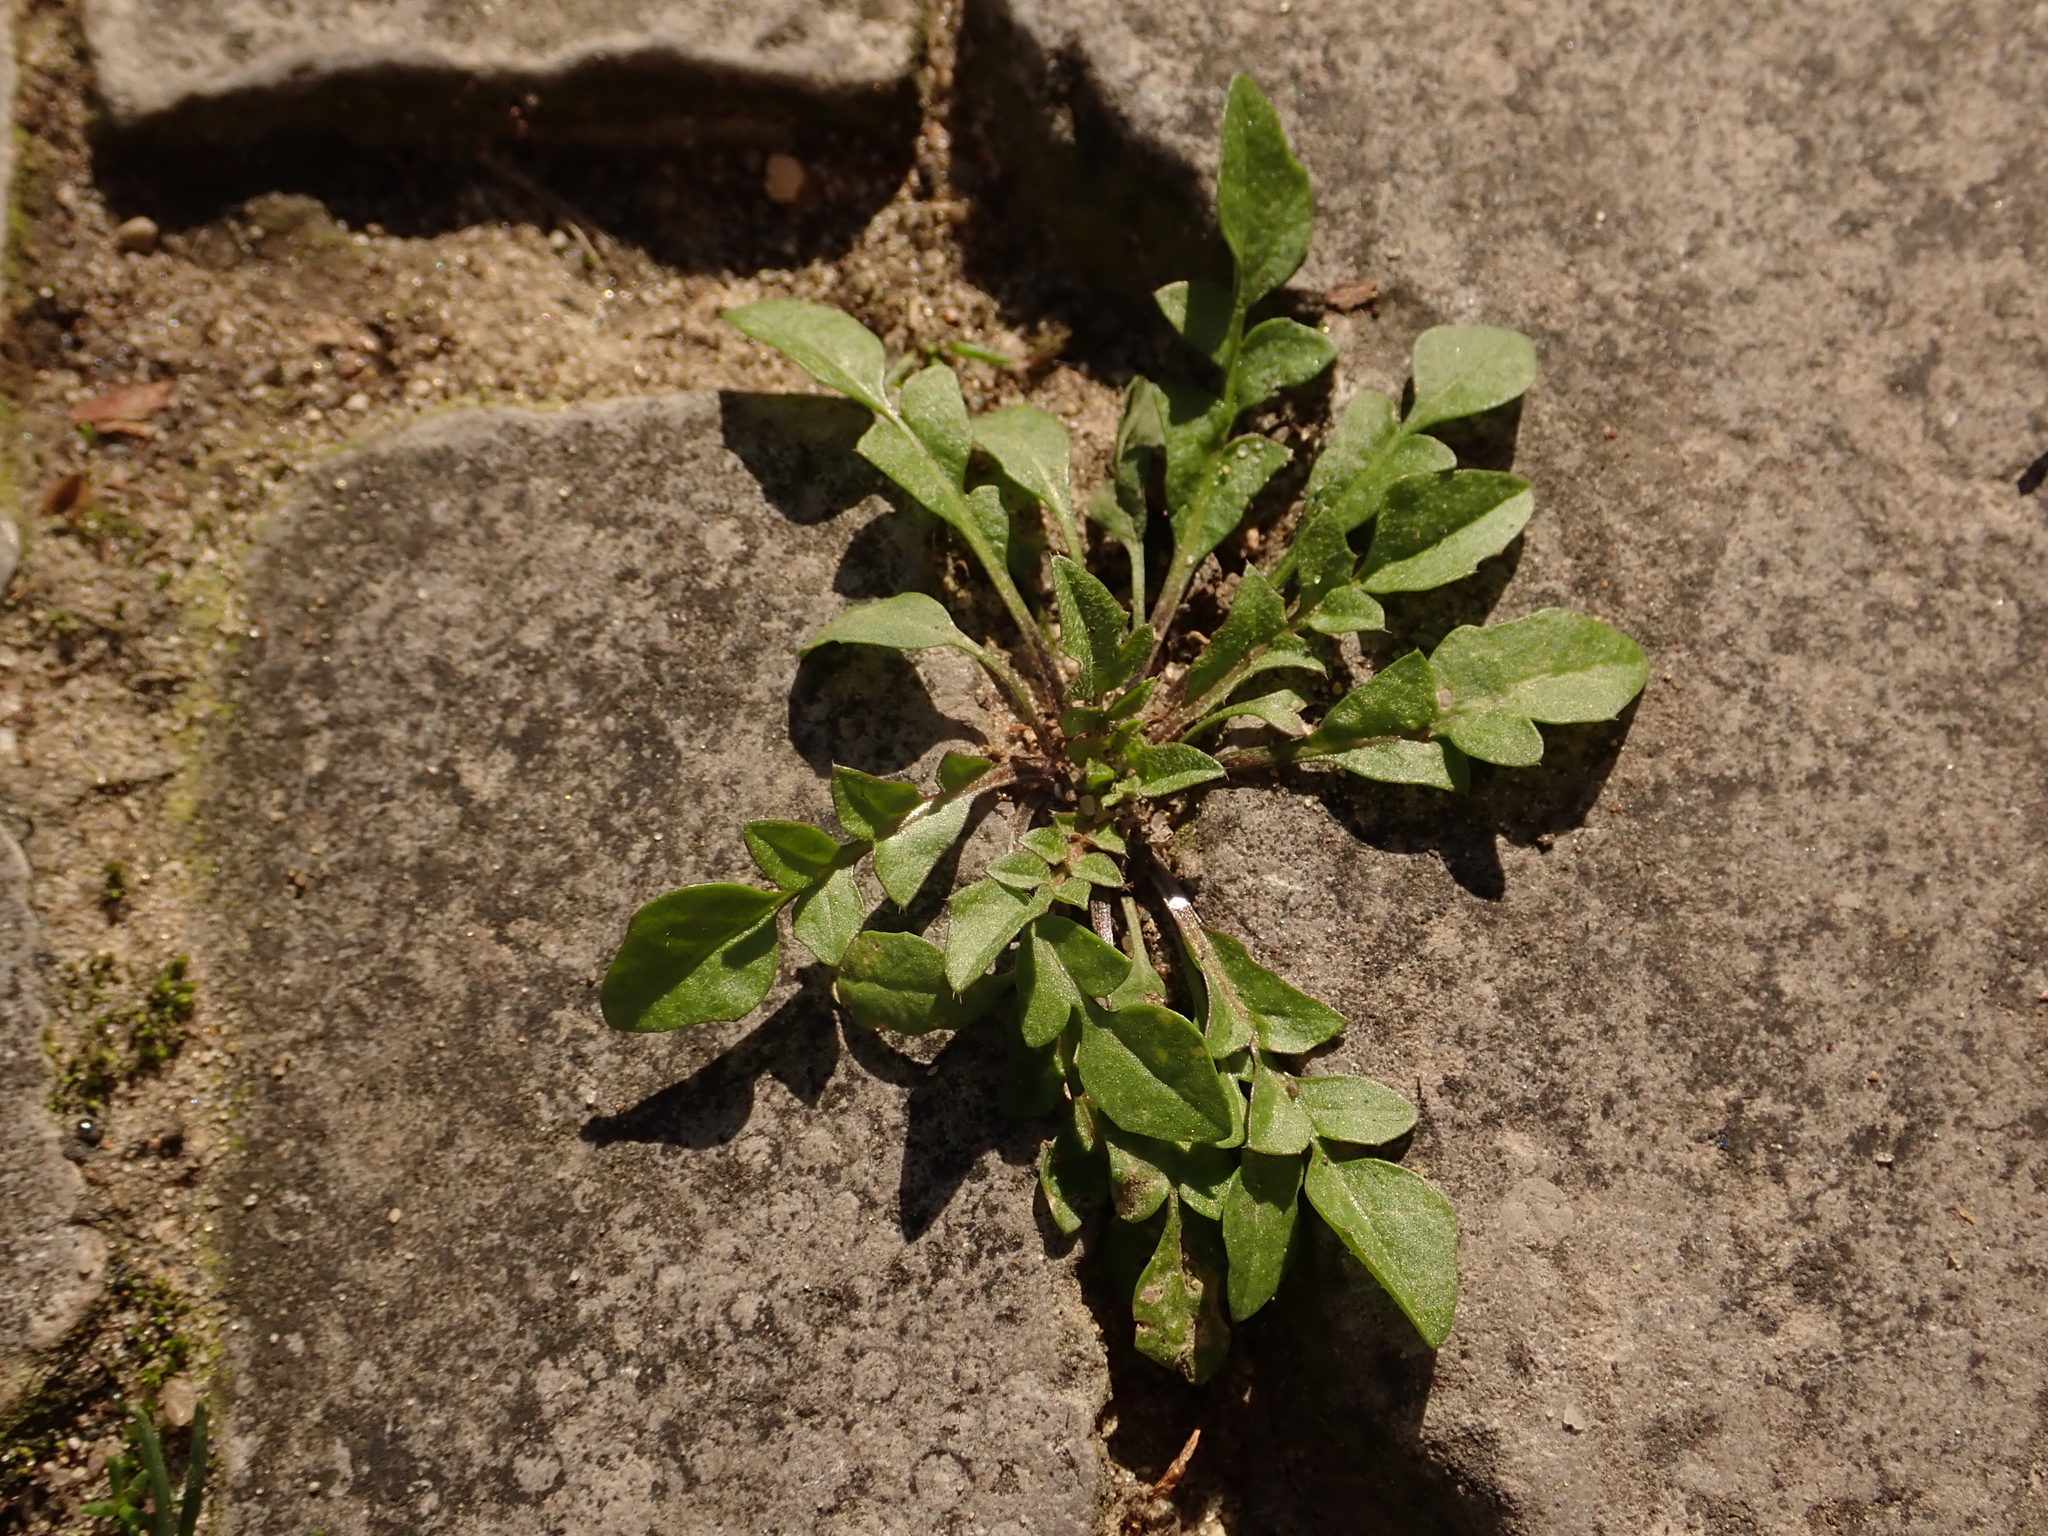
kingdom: Plantae
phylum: Tracheophyta
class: Magnoliopsida
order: Brassicales
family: Brassicaceae
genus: Capsella
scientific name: Capsella bursa-pastoris
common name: Shepherd's purse
